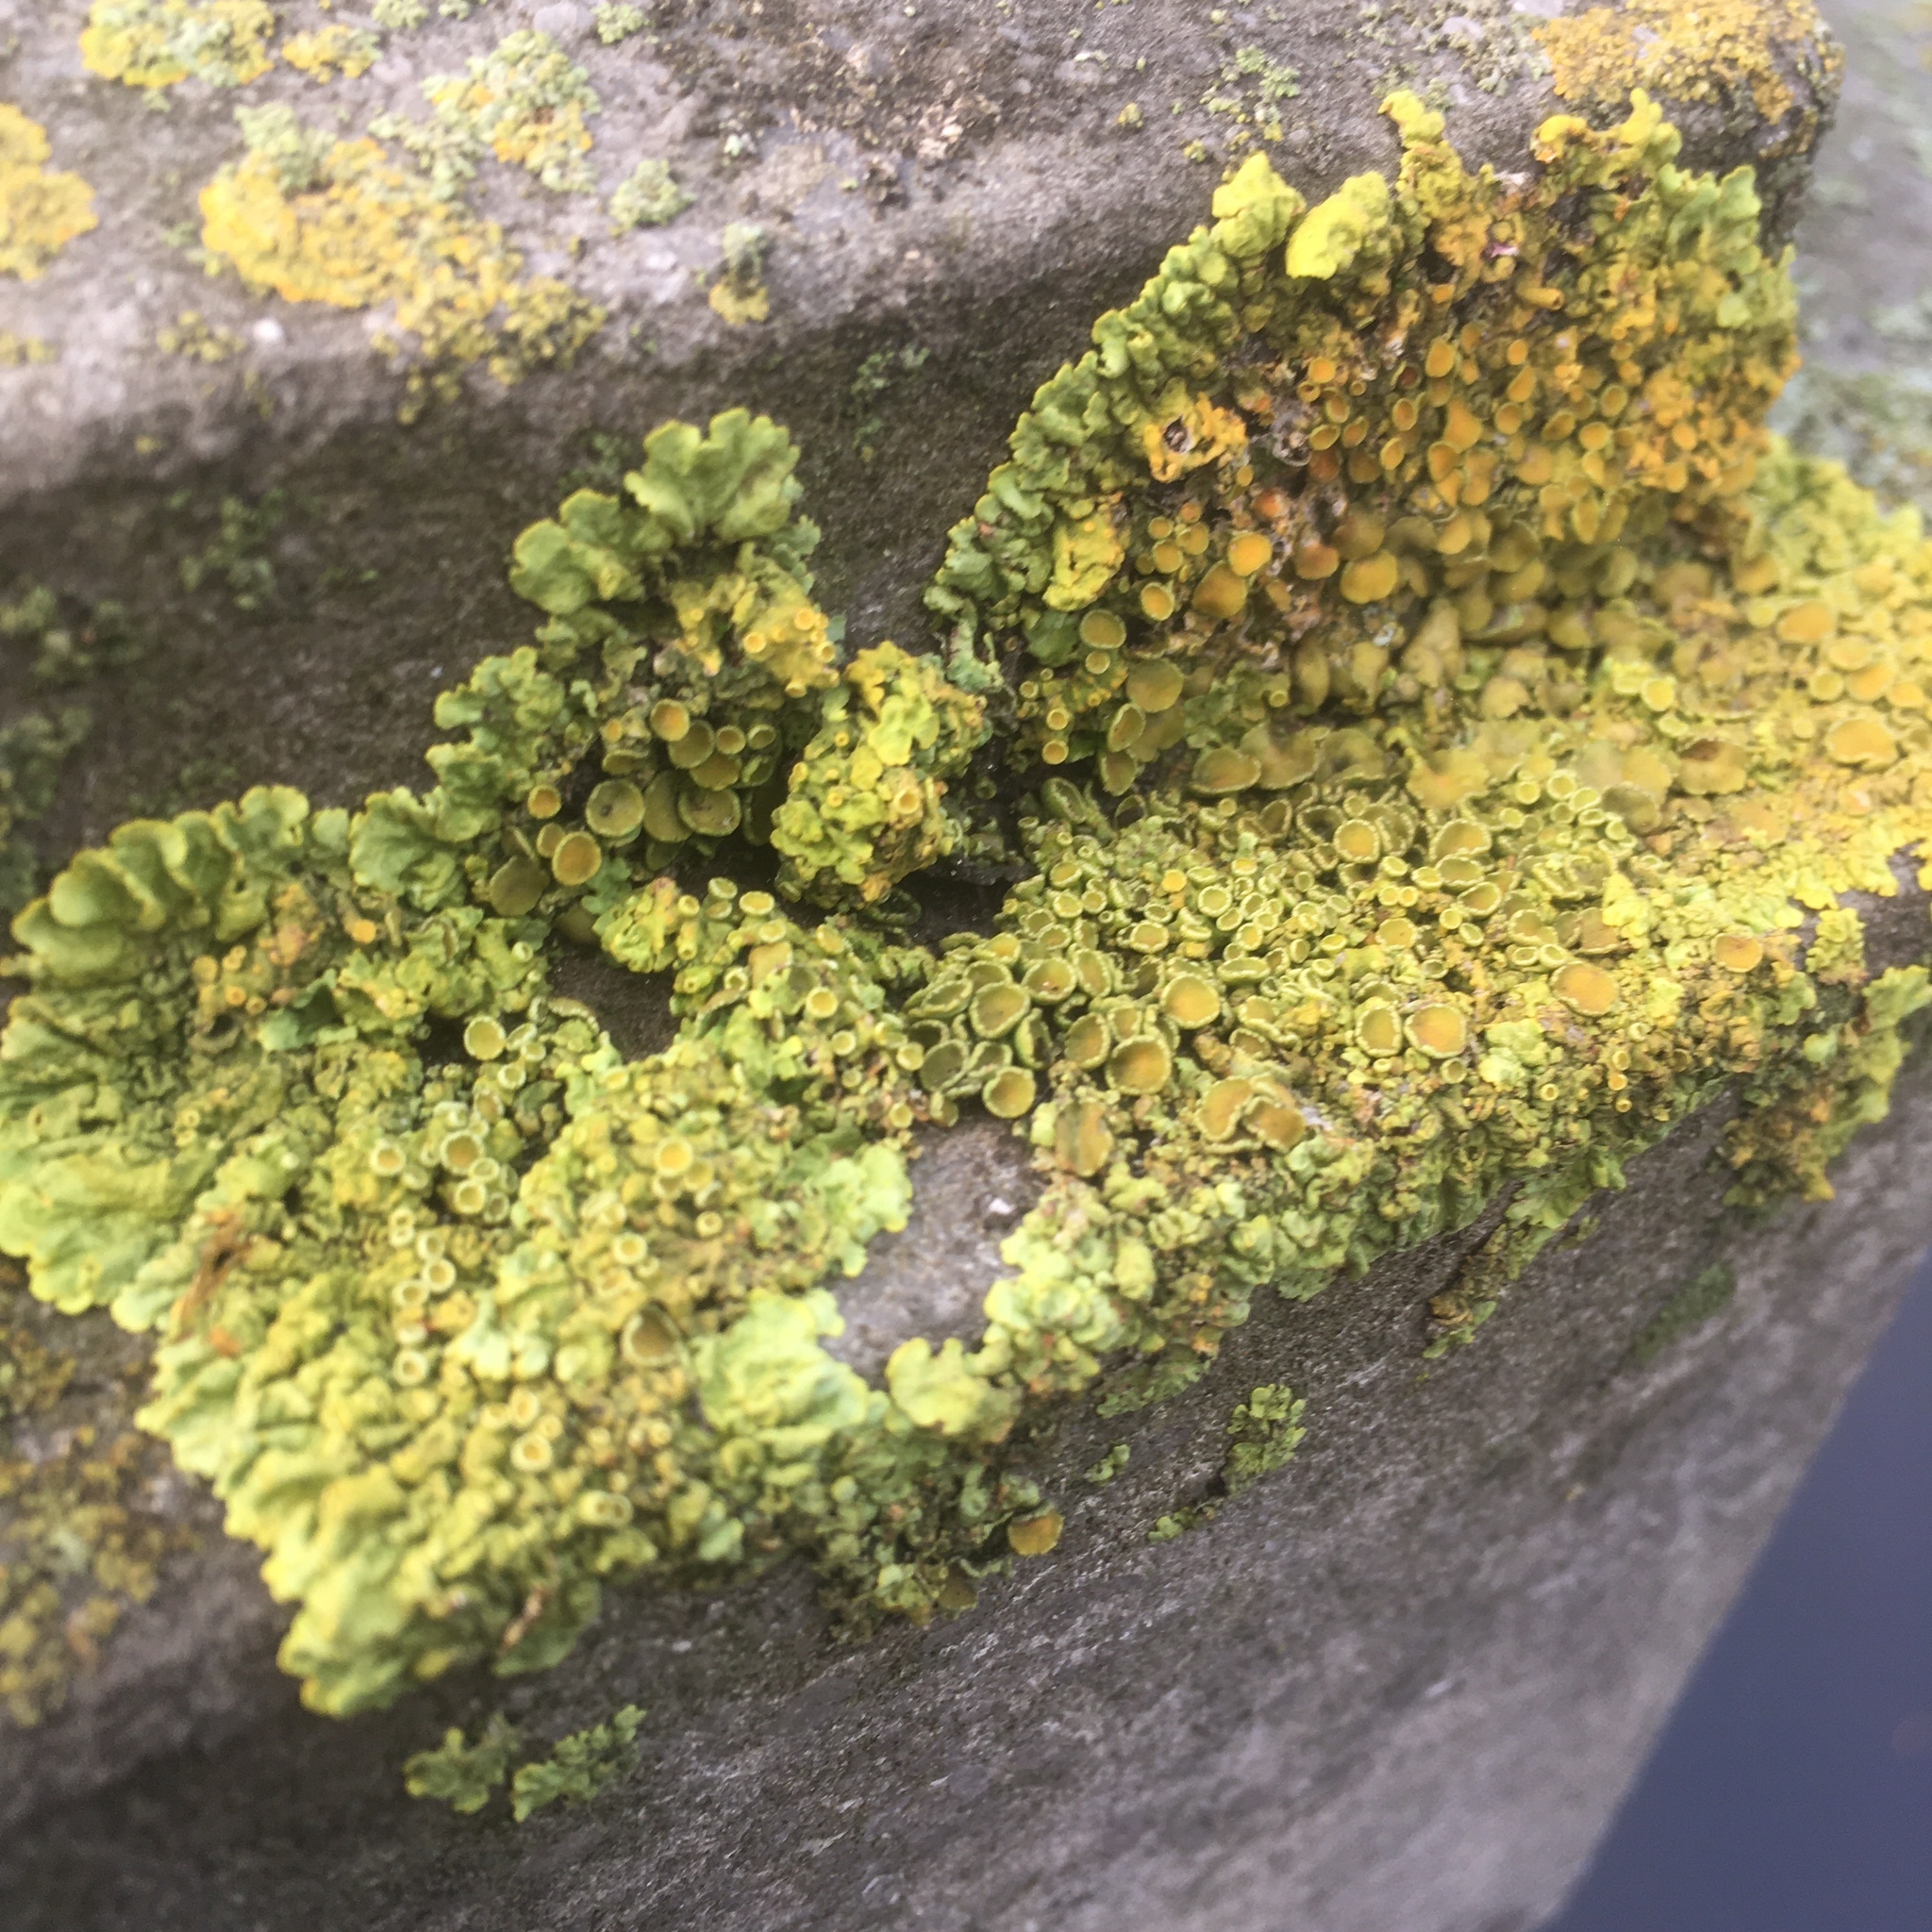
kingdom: Fungi
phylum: Ascomycota
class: Lecanoromycetes
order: Teloschistales
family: Teloschistaceae
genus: Xanthoria
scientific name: Xanthoria parietina
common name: Common orange lichen
